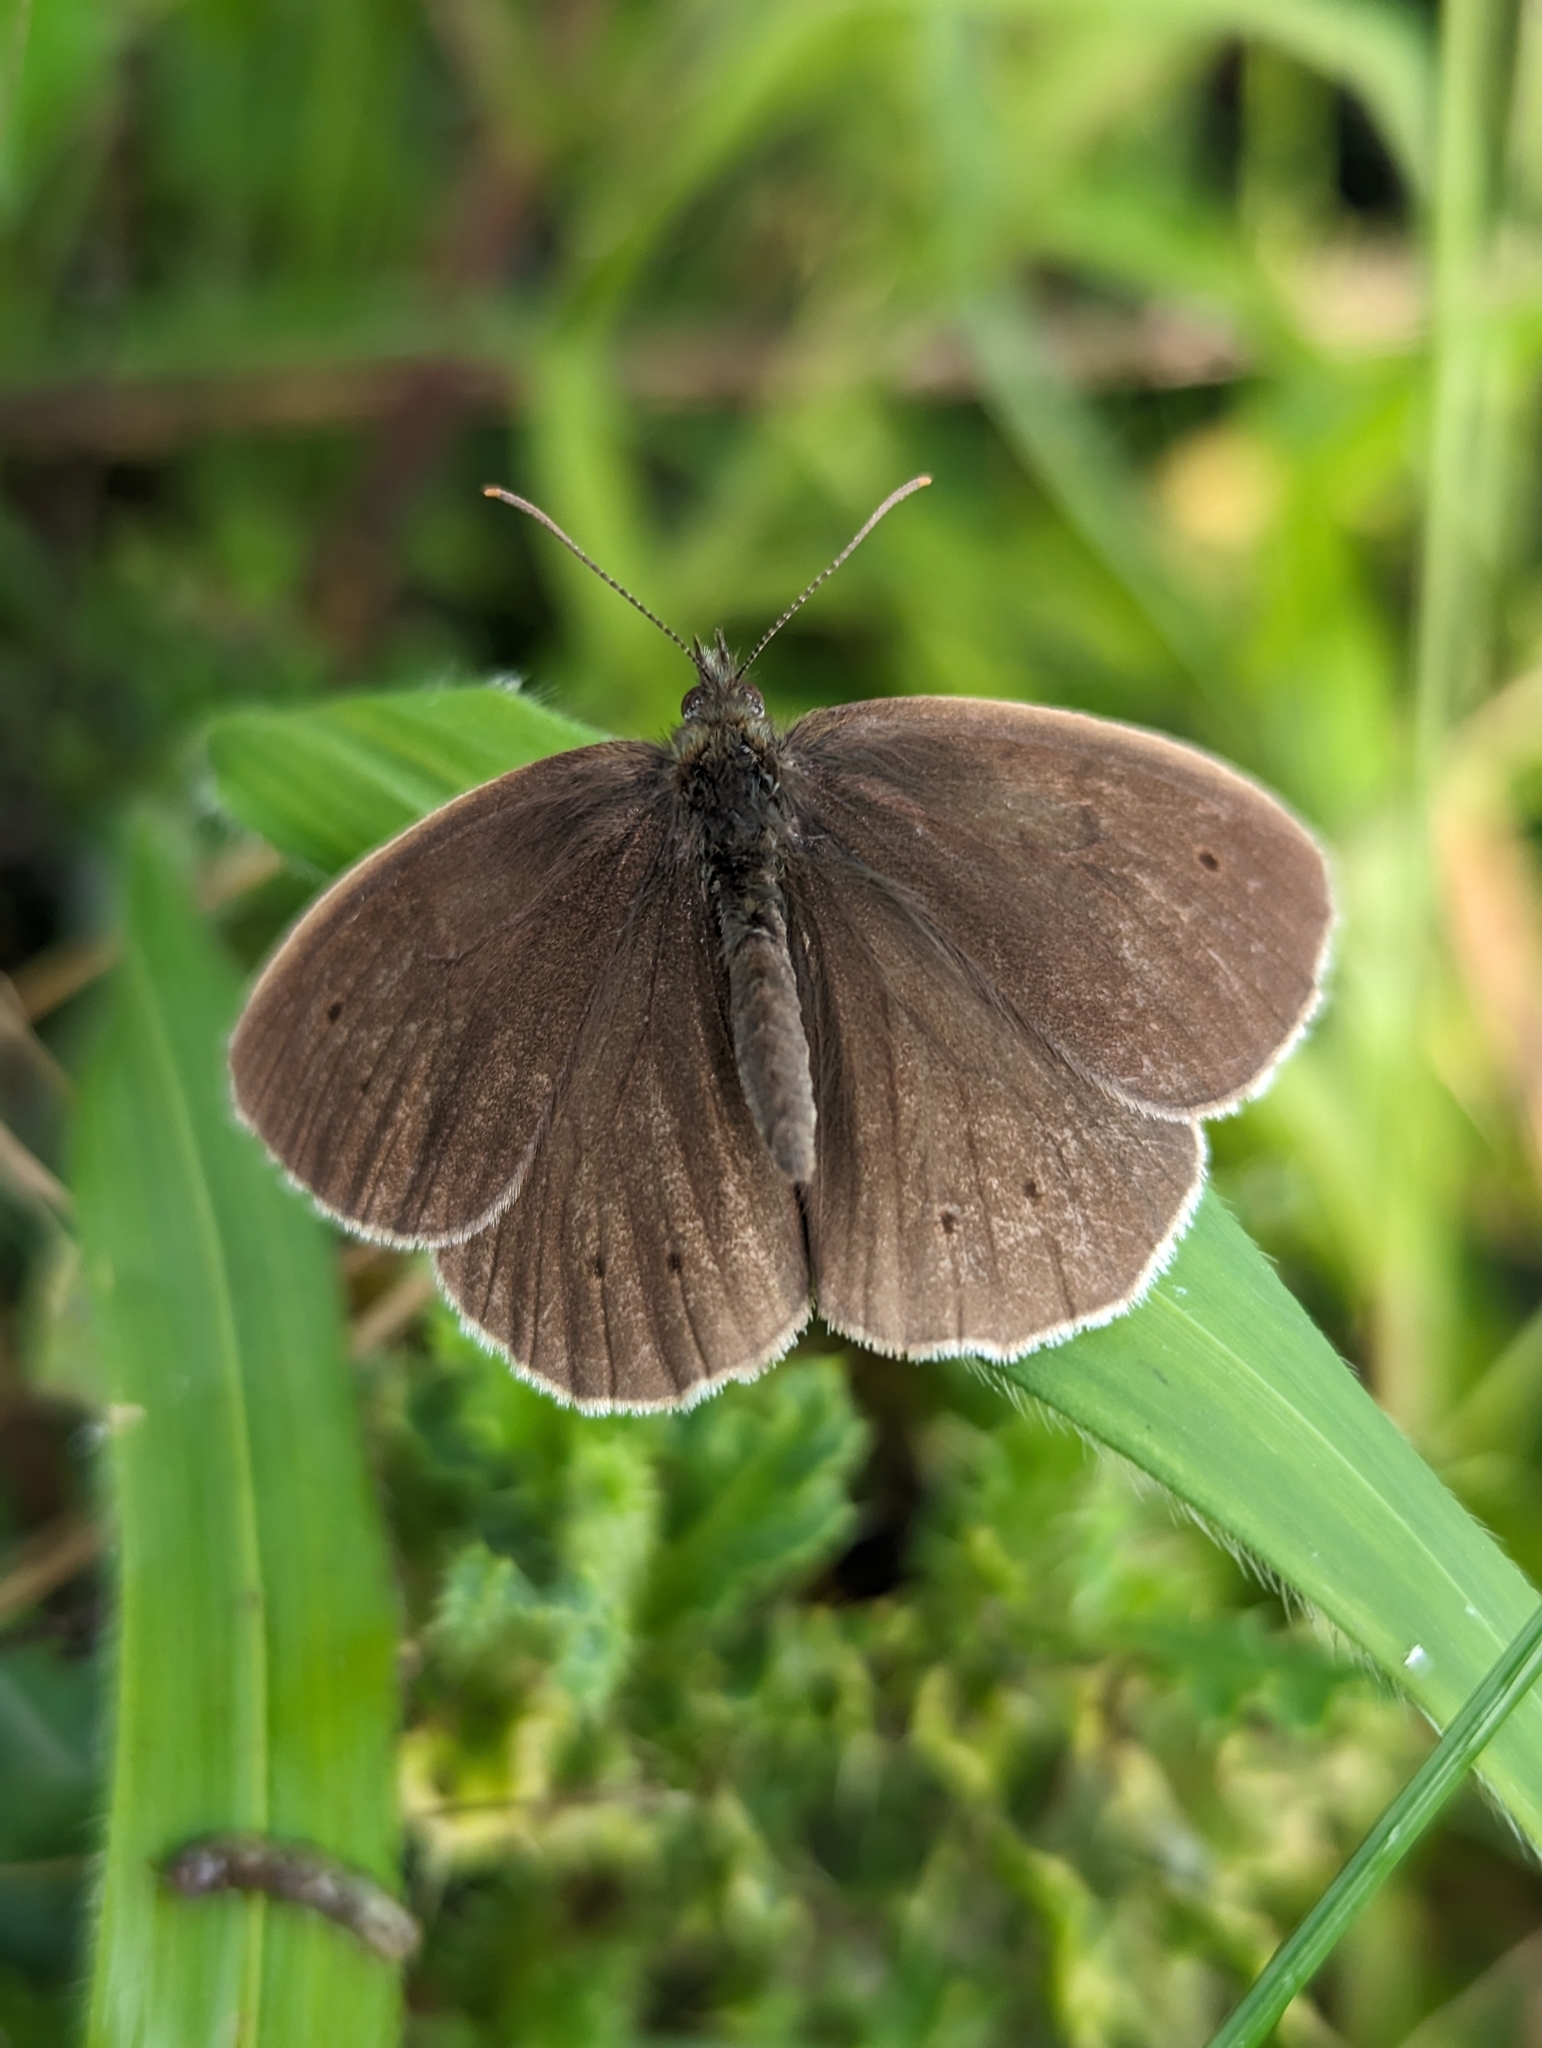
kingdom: Animalia
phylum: Arthropoda
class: Insecta
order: Lepidoptera
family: Nymphalidae
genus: Aphantopus
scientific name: Aphantopus hyperantus
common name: Ringlet
